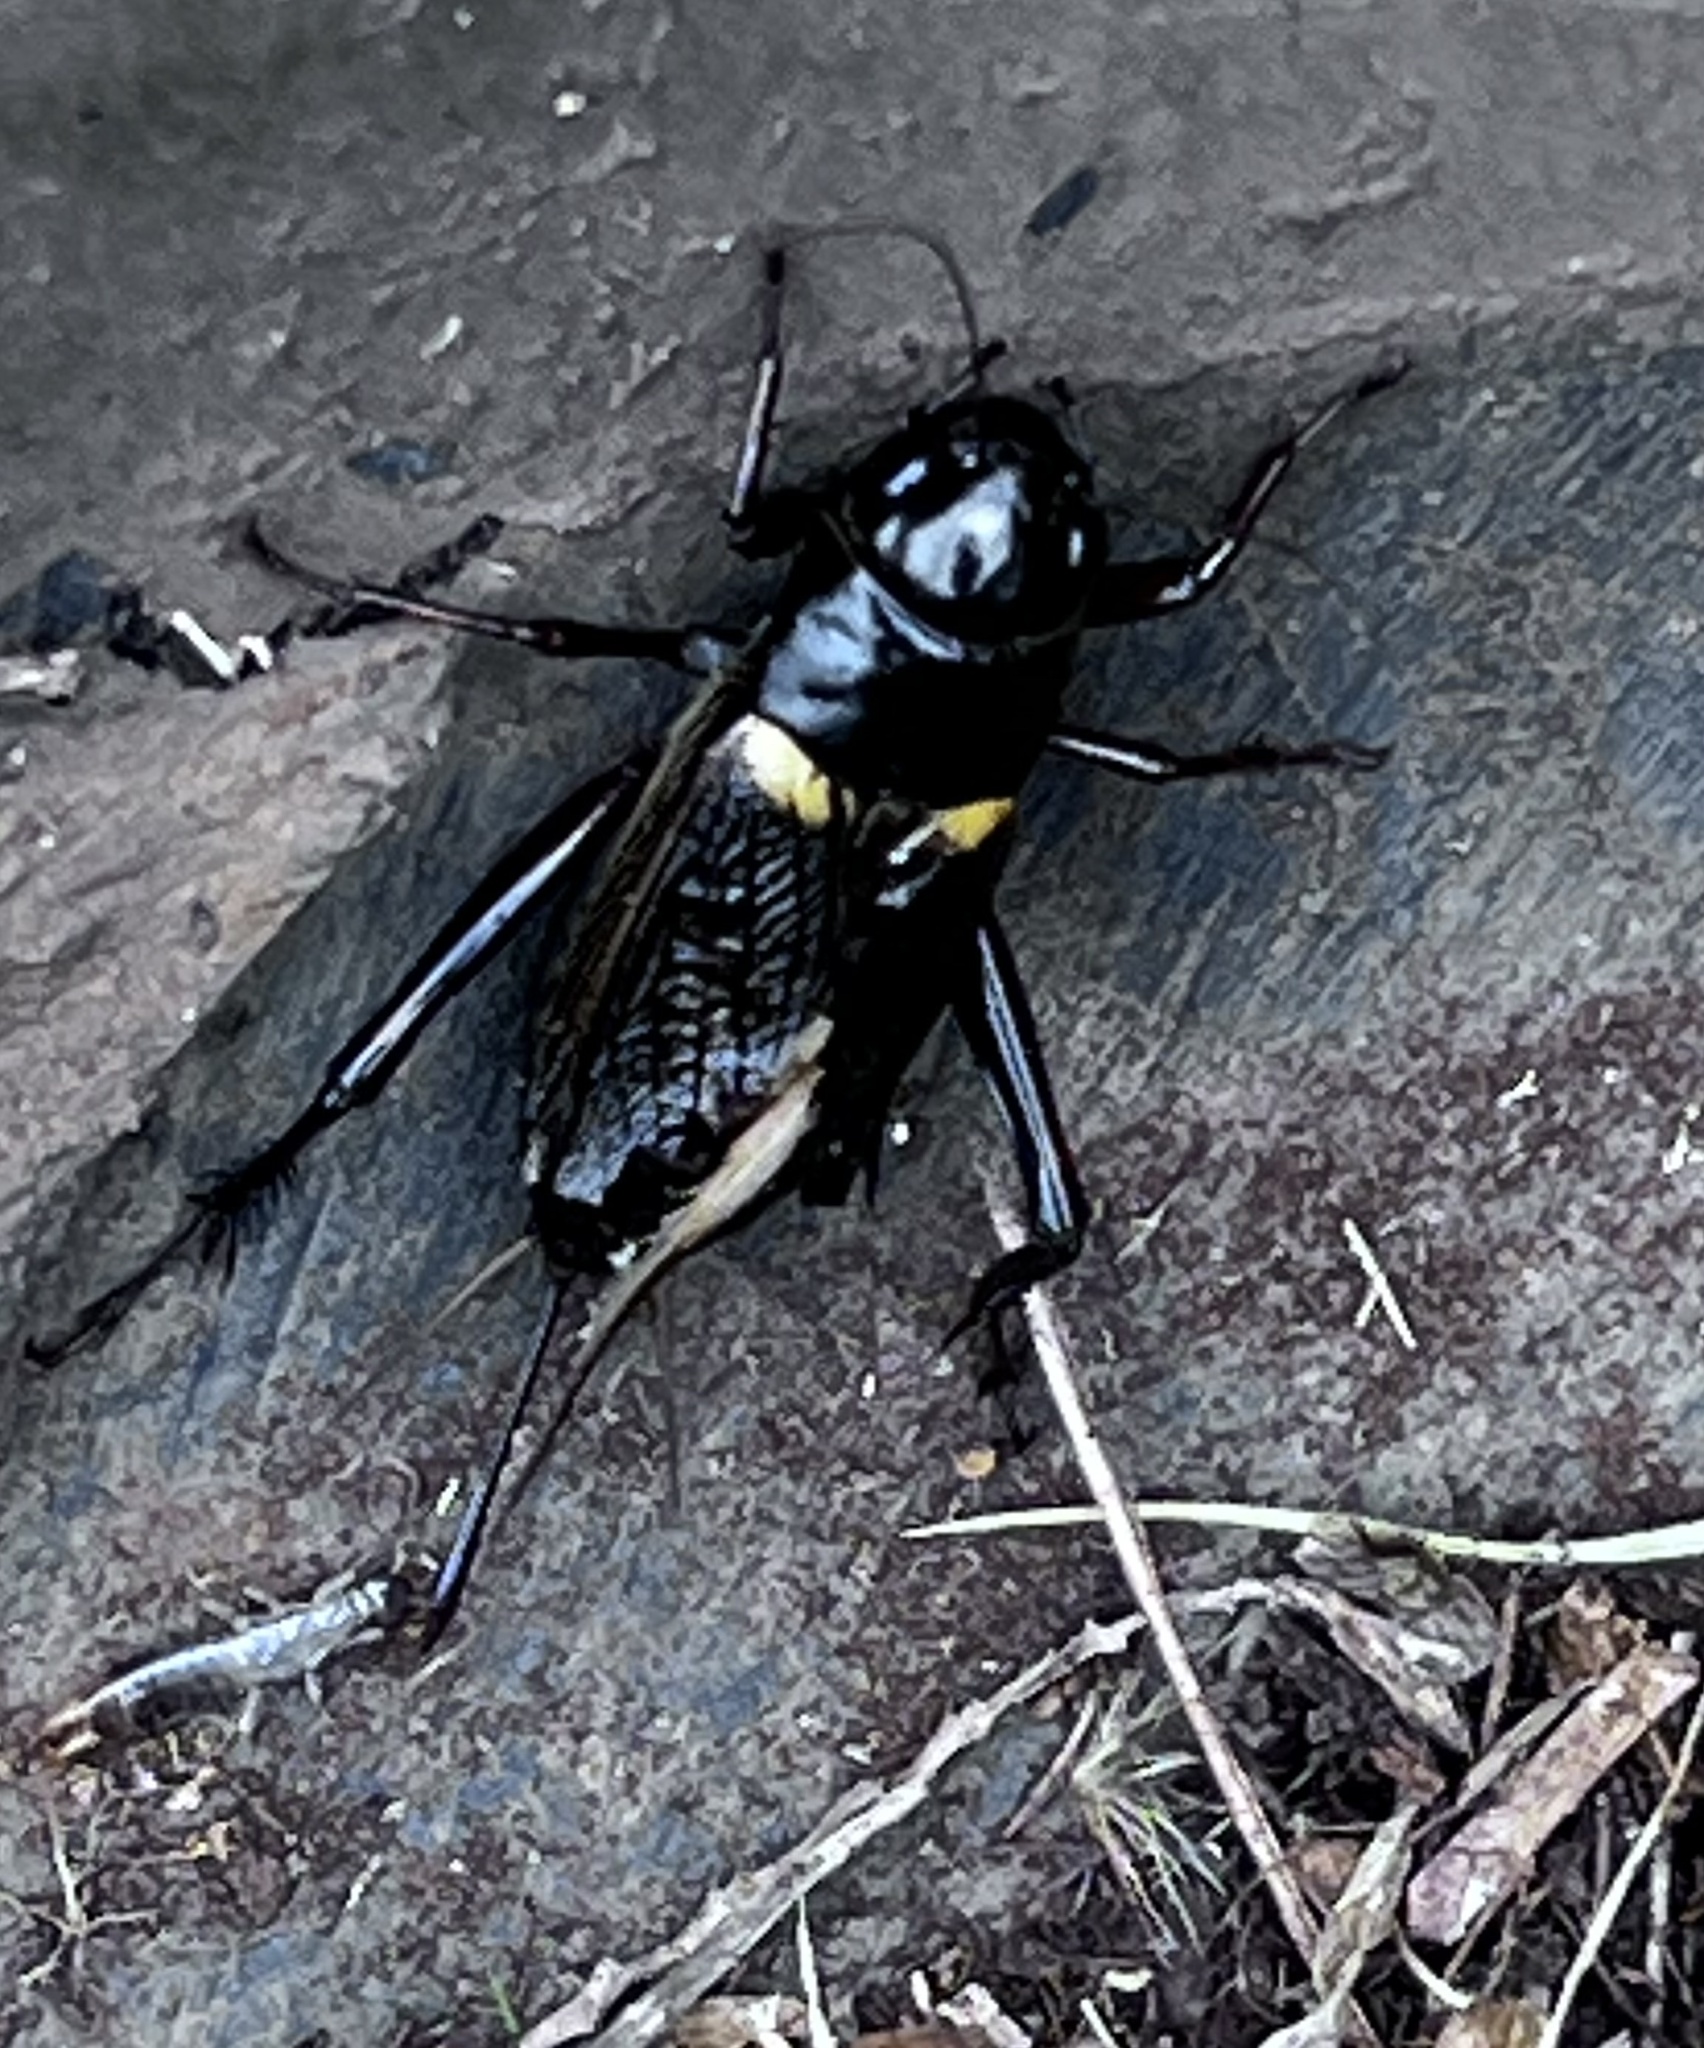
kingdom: Animalia
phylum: Arthropoda
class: Insecta
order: Orthoptera
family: Gryllidae
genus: Gryllus
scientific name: Gryllus bimaculatus
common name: Two-spotted cricket
